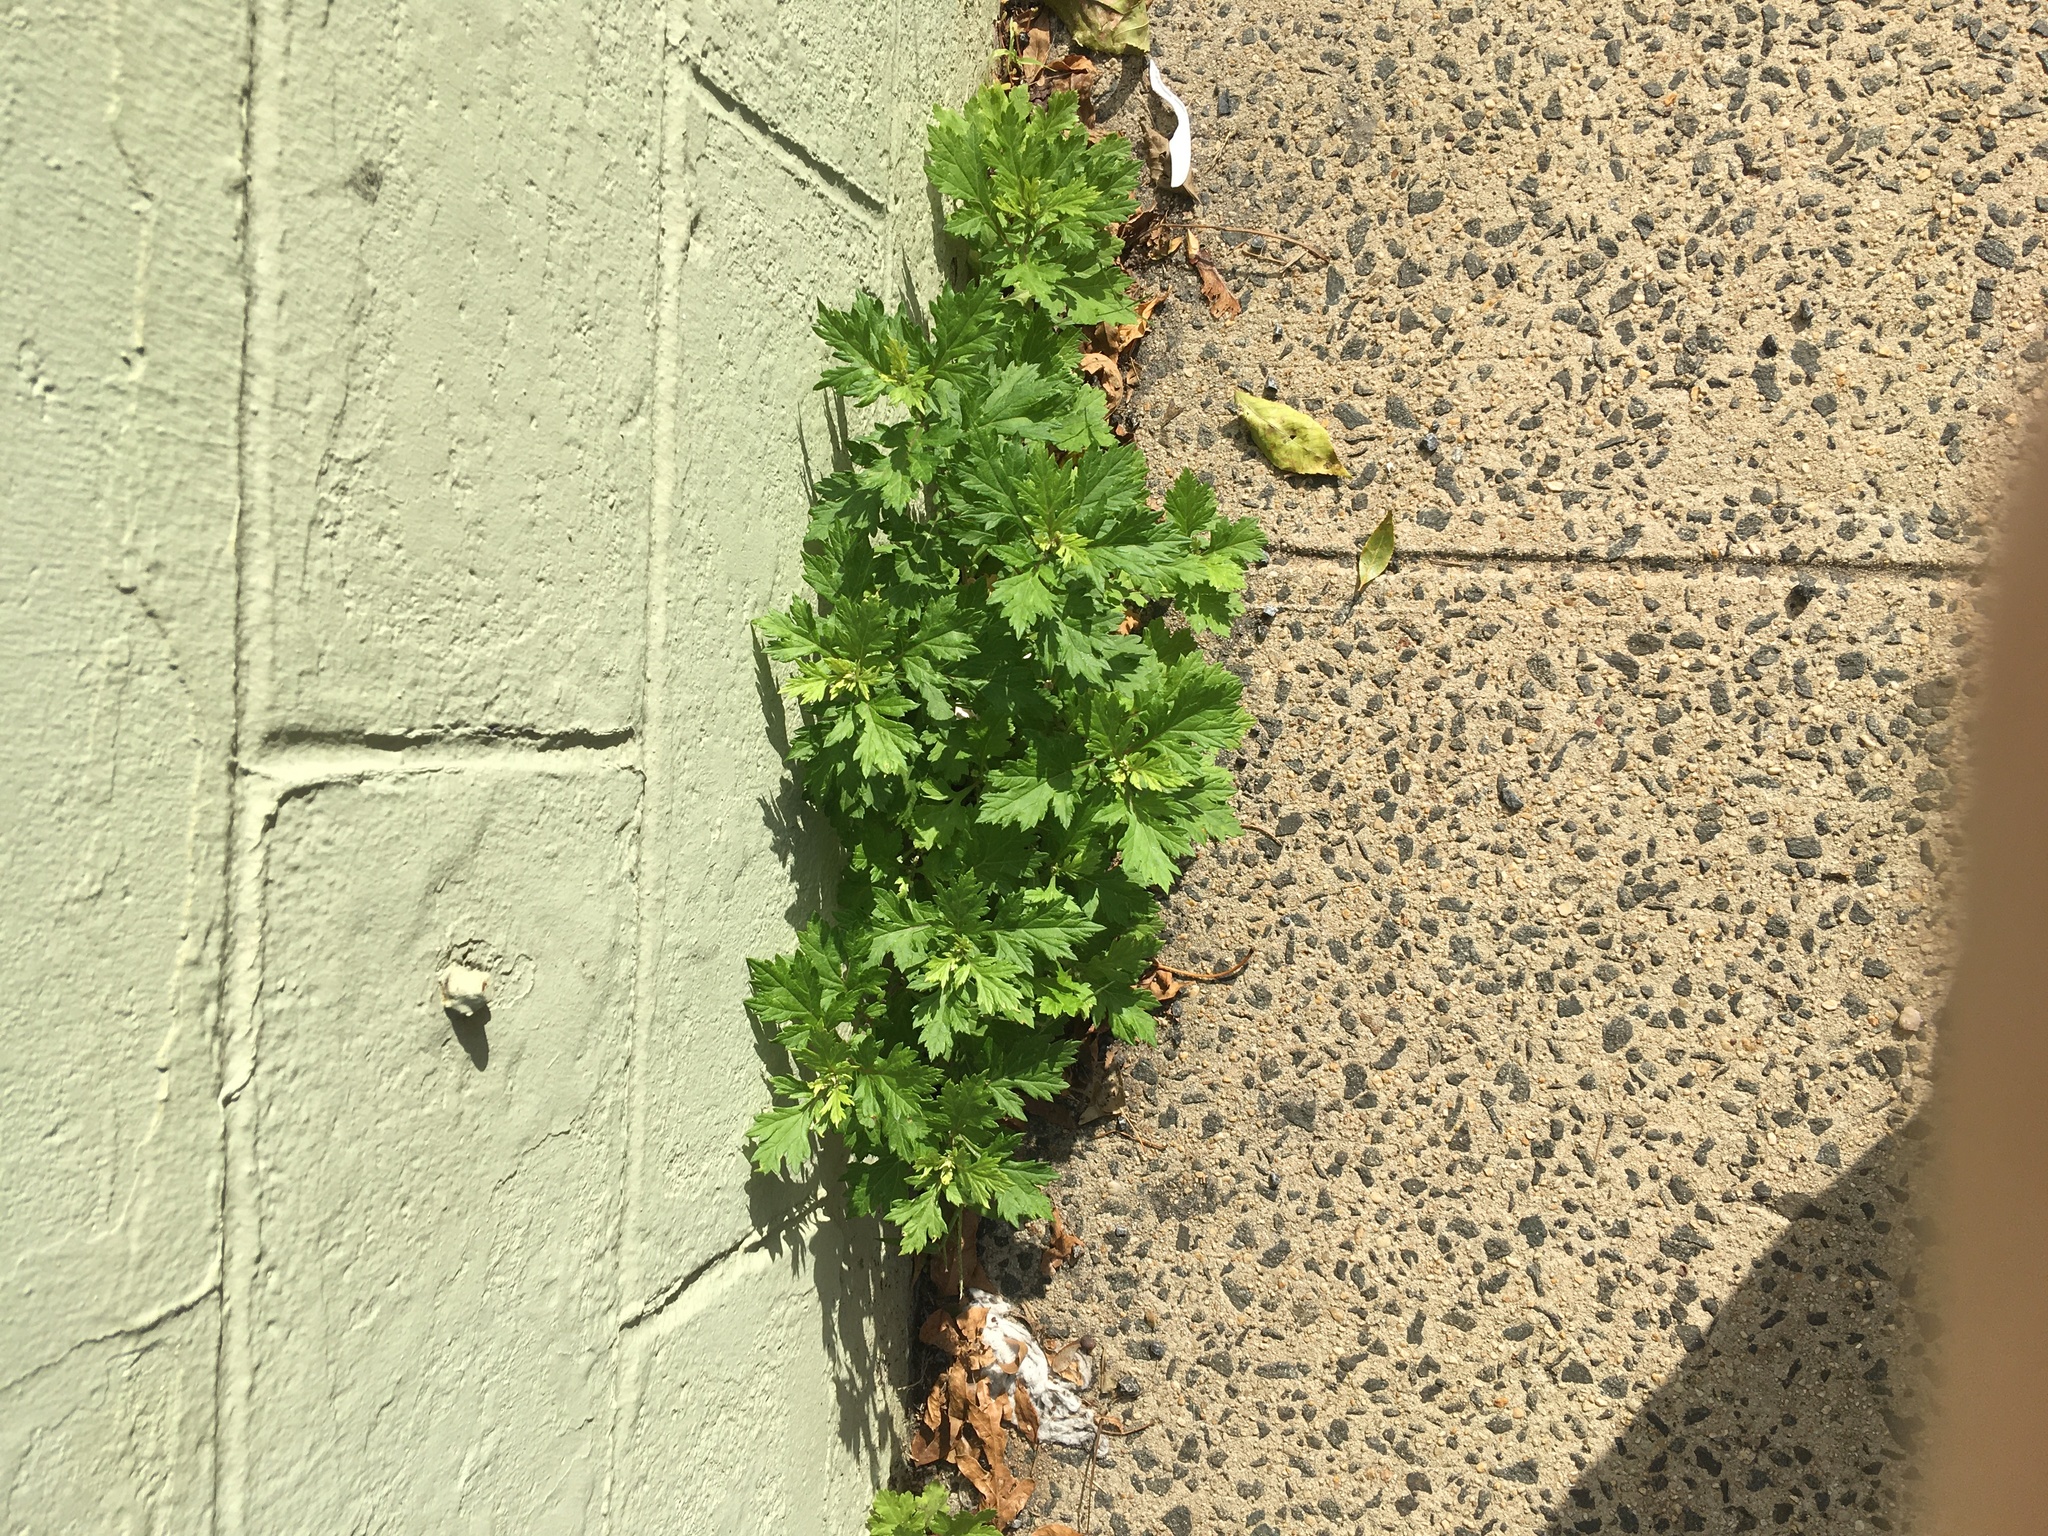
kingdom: Plantae
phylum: Tracheophyta
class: Magnoliopsida
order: Asterales
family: Asteraceae
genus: Artemisia
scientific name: Artemisia vulgaris
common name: Mugwort
